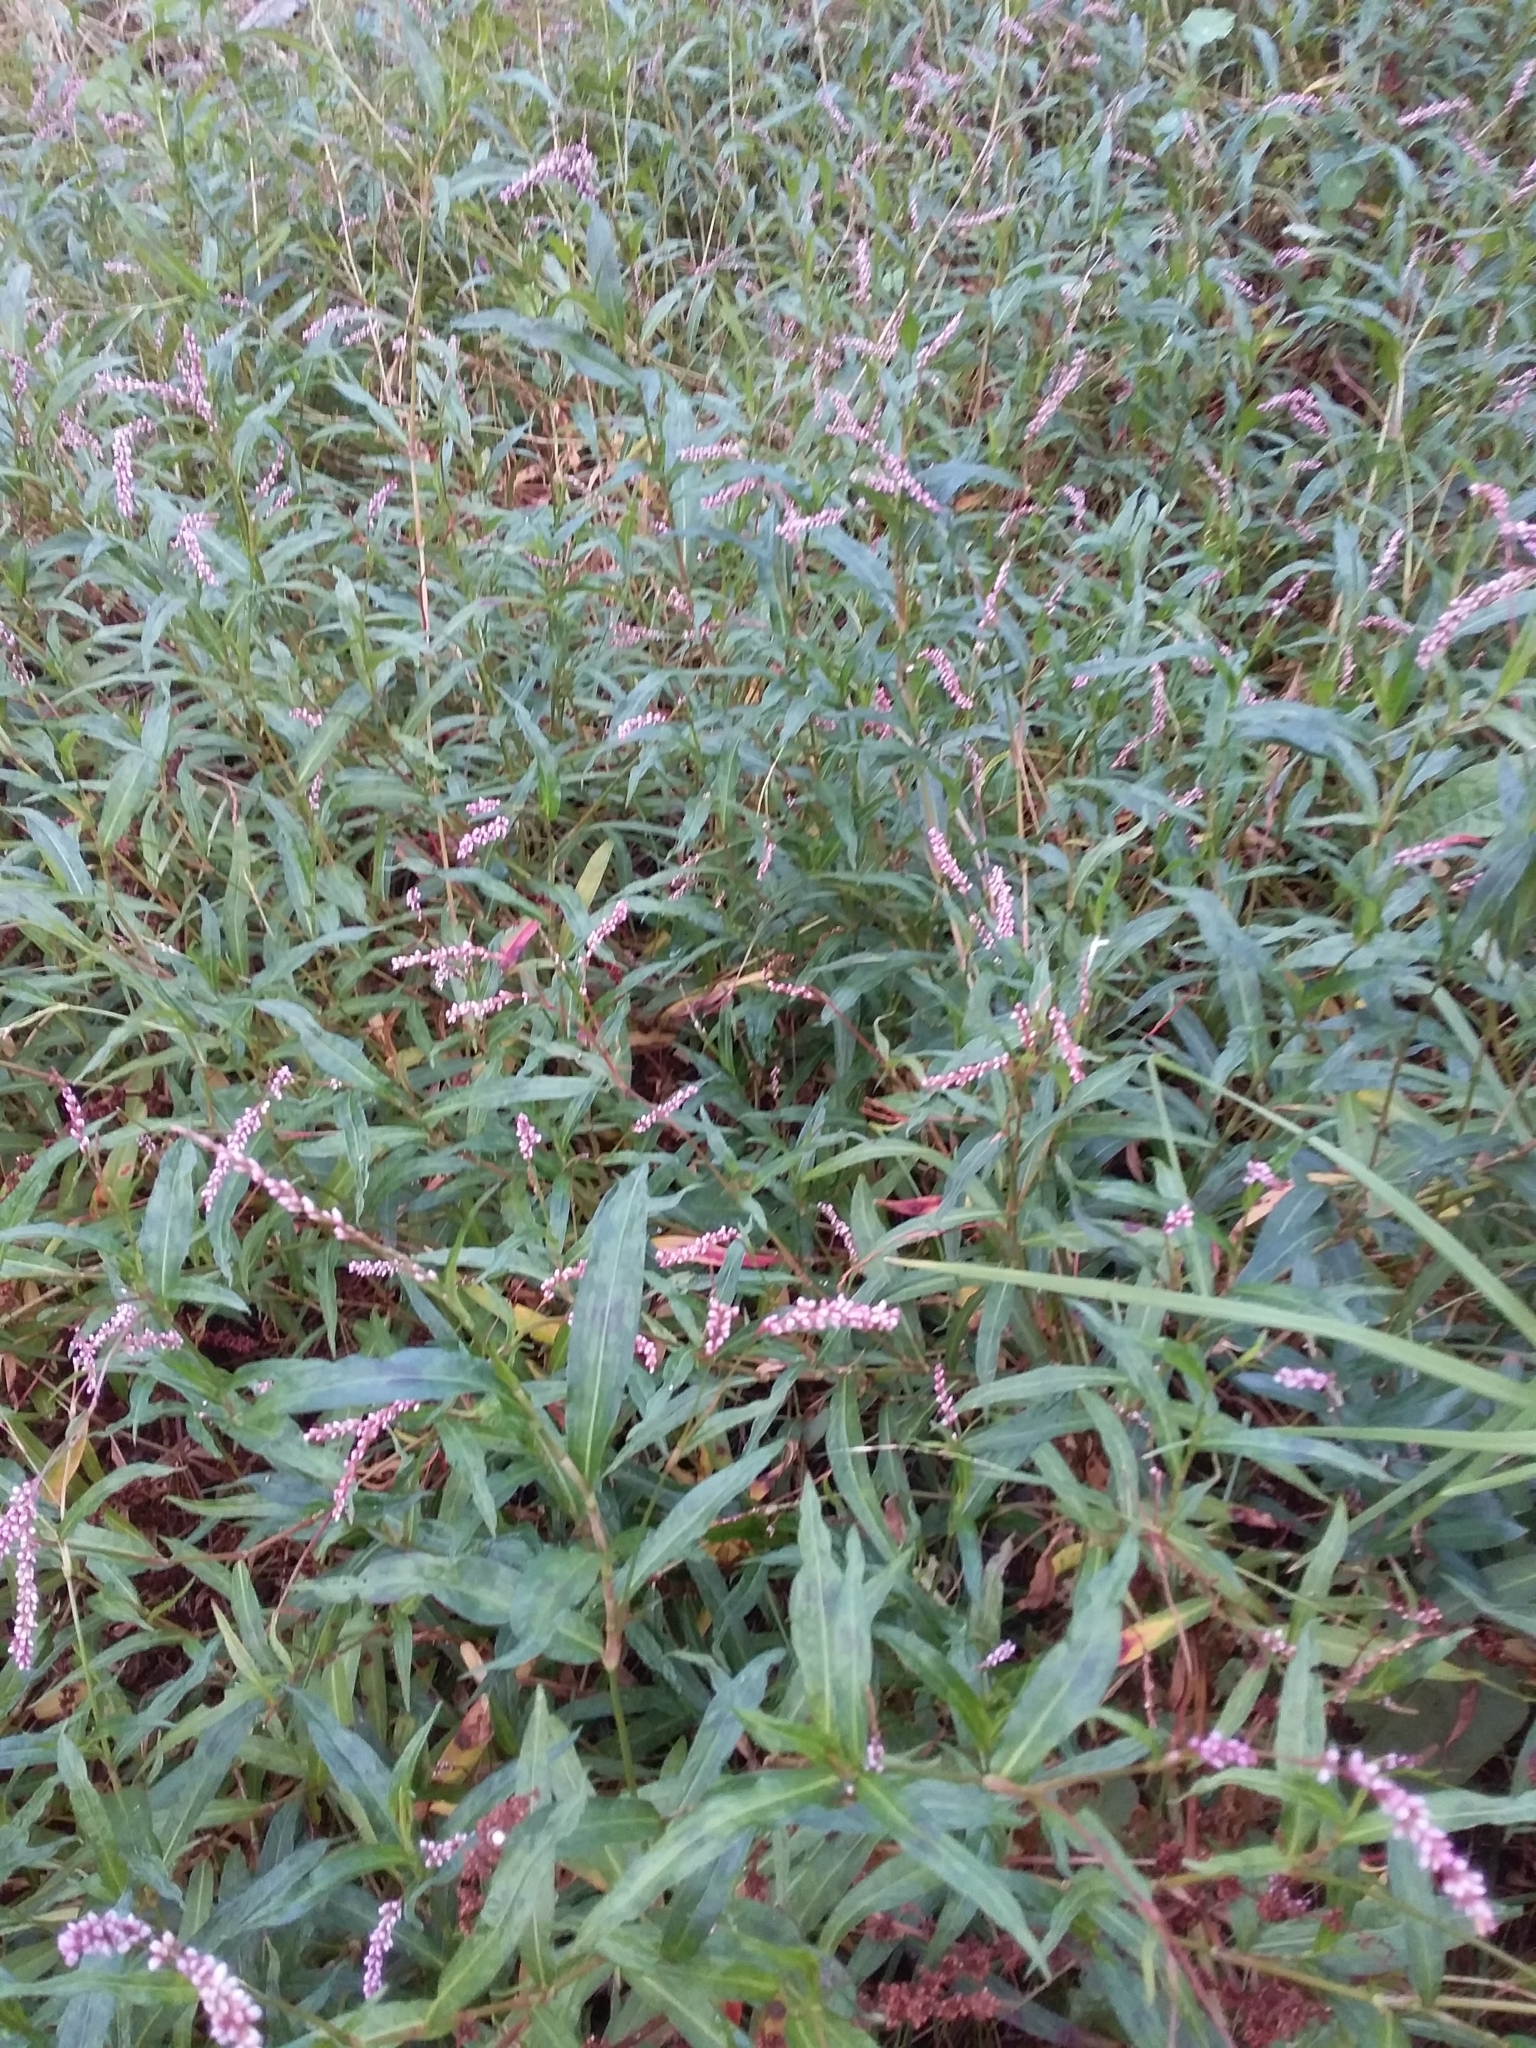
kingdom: Plantae
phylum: Tracheophyta
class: Magnoliopsida
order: Caryophyllales
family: Polygonaceae
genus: Persicaria
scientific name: Persicaria decipiens
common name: Willow-weed
